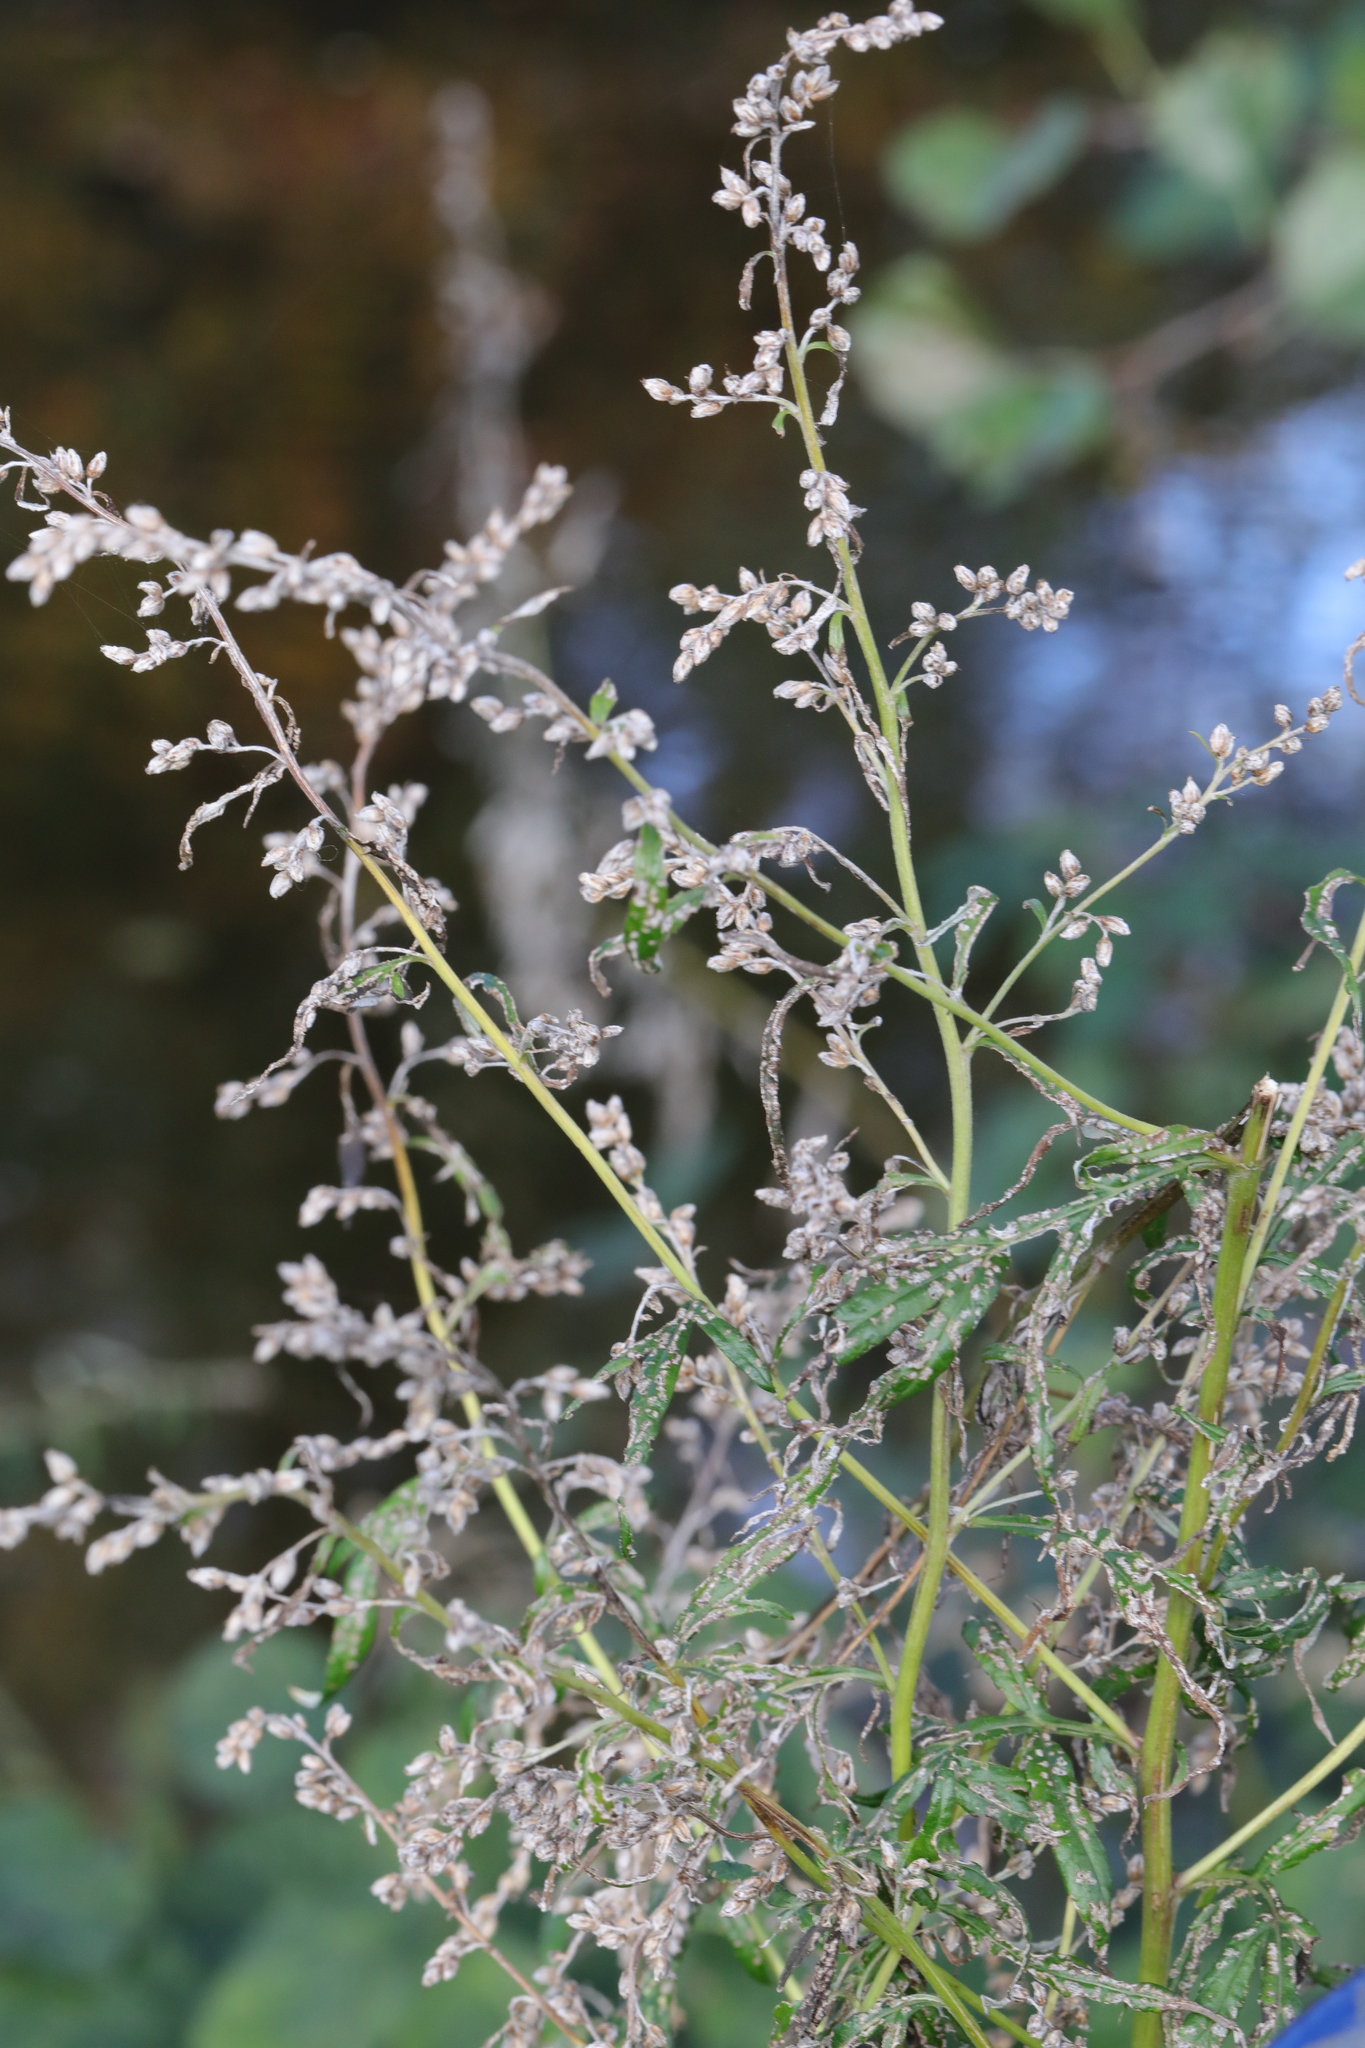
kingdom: Plantae
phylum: Tracheophyta
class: Magnoliopsida
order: Asterales
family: Asteraceae
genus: Artemisia
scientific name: Artemisia vulgaris
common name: Mugwort
